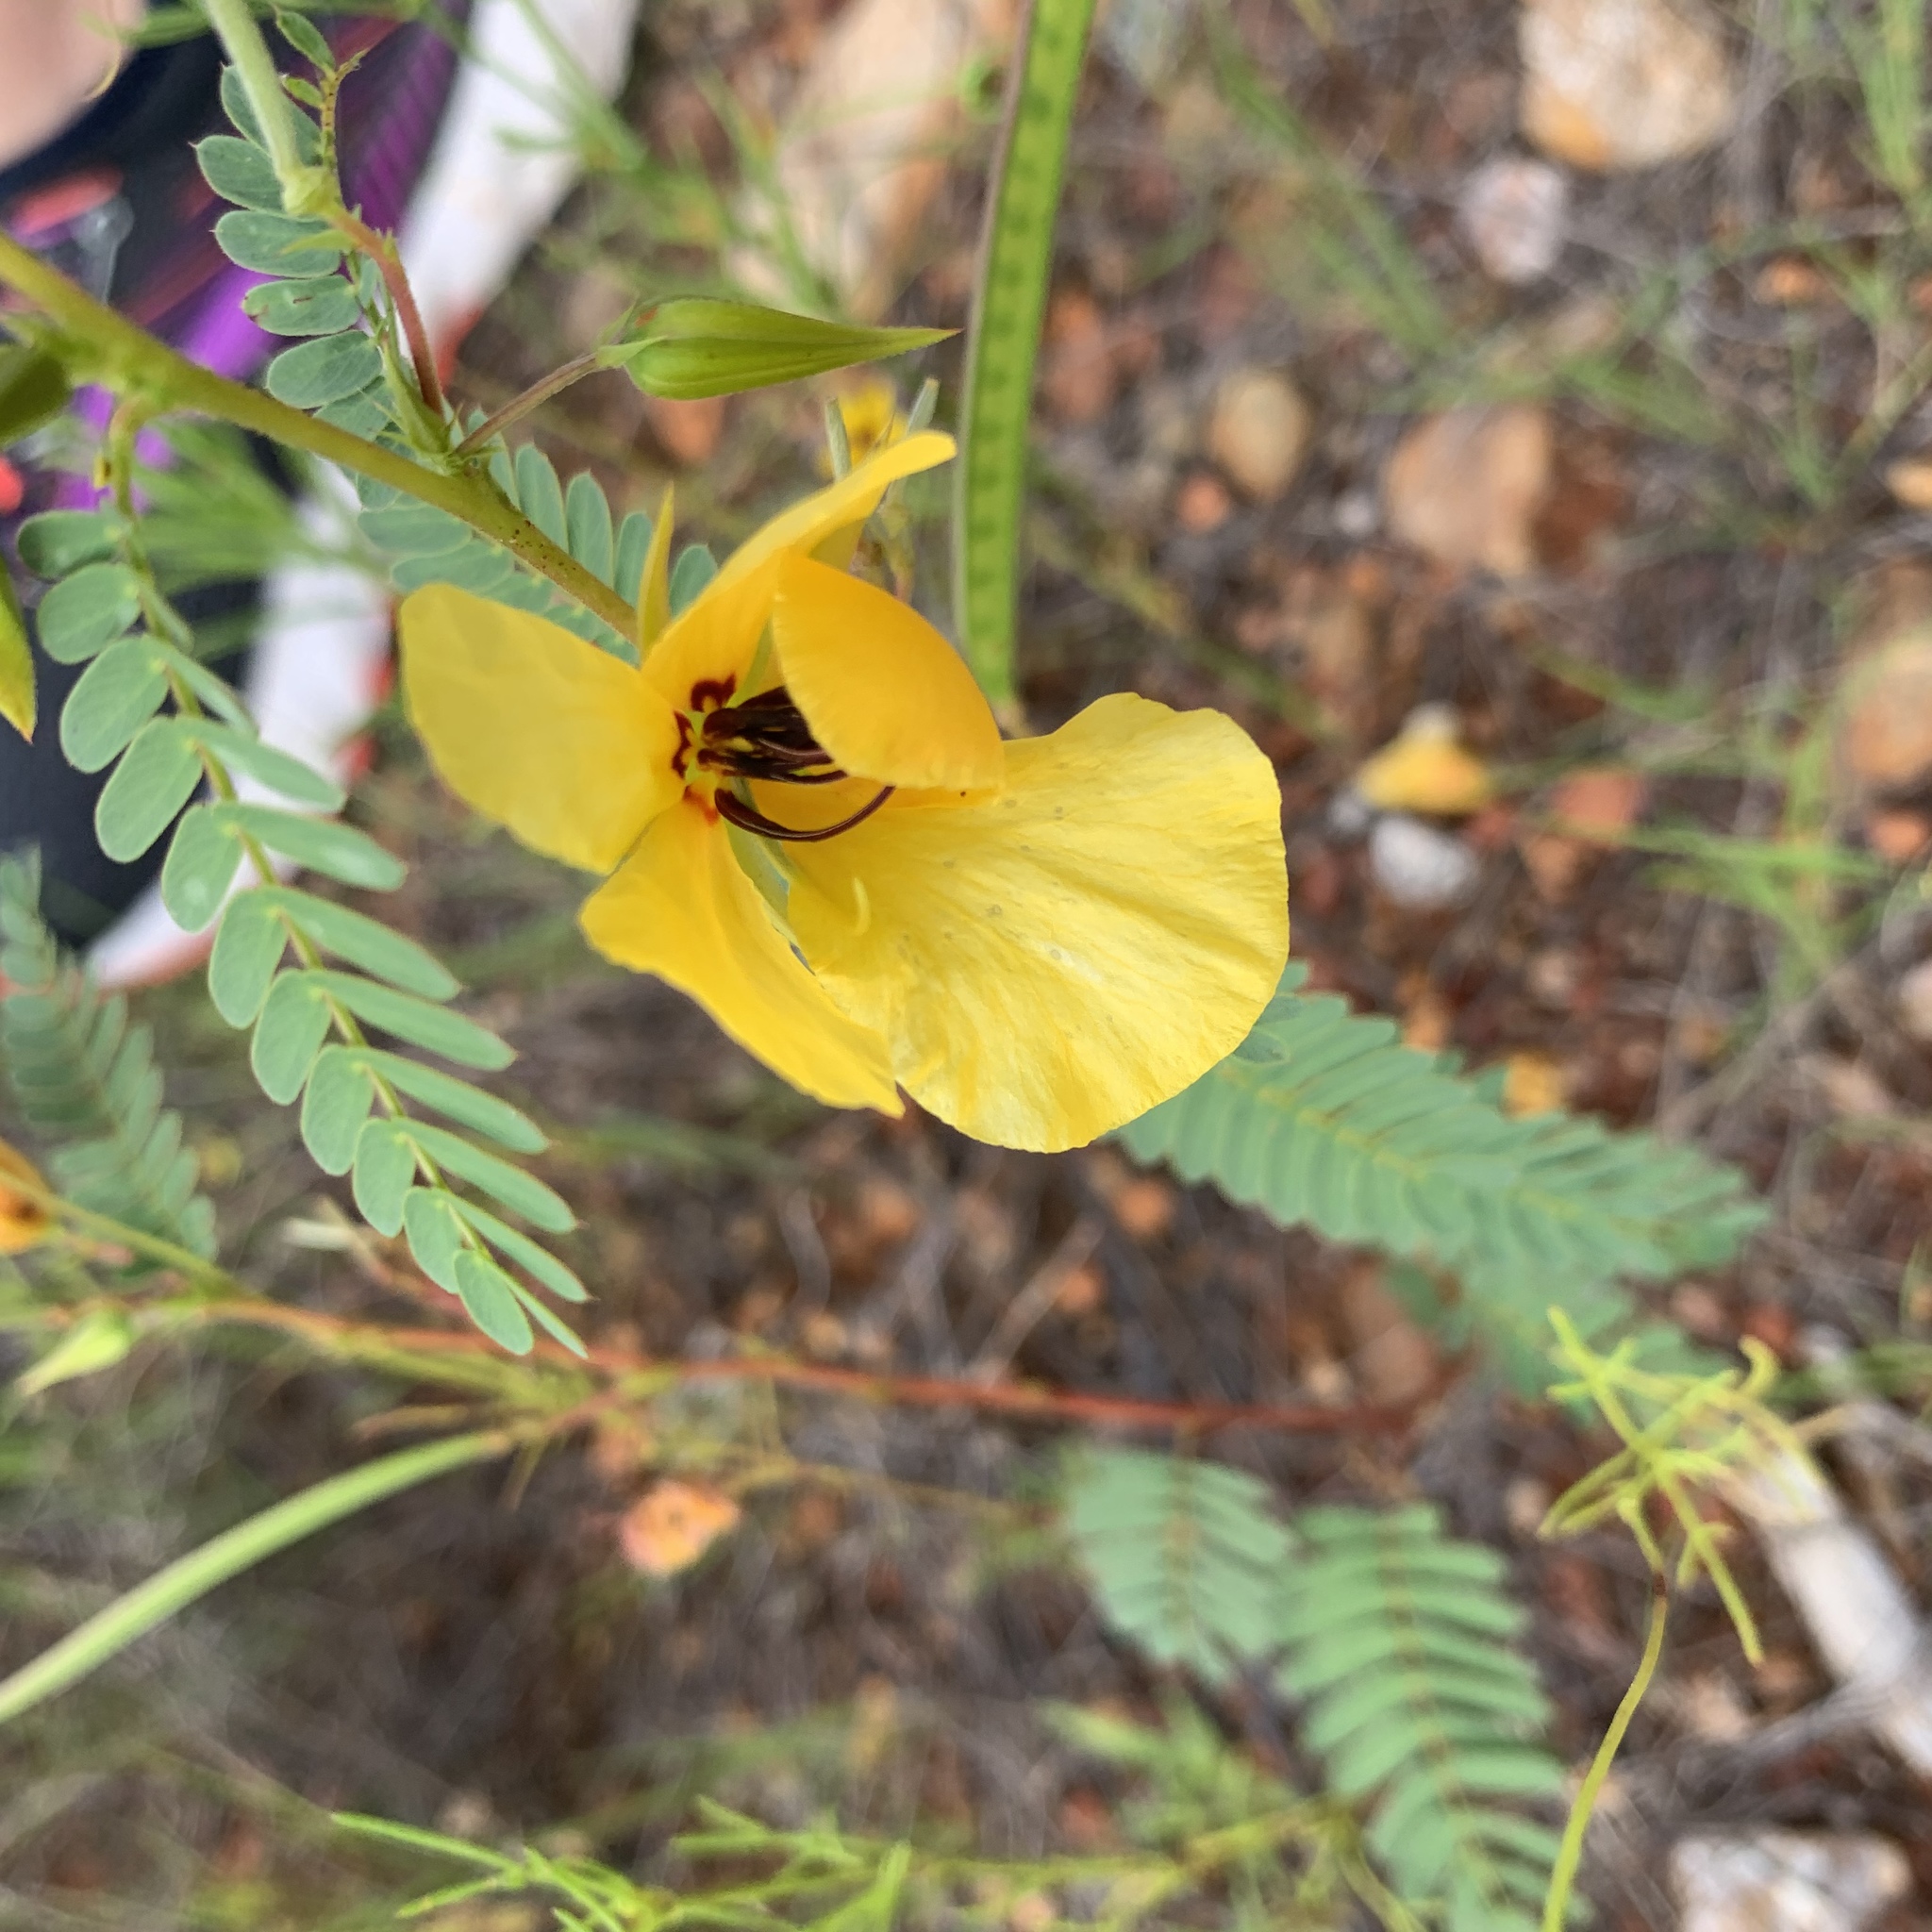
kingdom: Plantae
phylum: Tracheophyta
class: Magnoliopsida
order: Fabales
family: Fabaceae
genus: Chamaecrista
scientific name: Chamaecrista fasciculata
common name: Golden cassia
